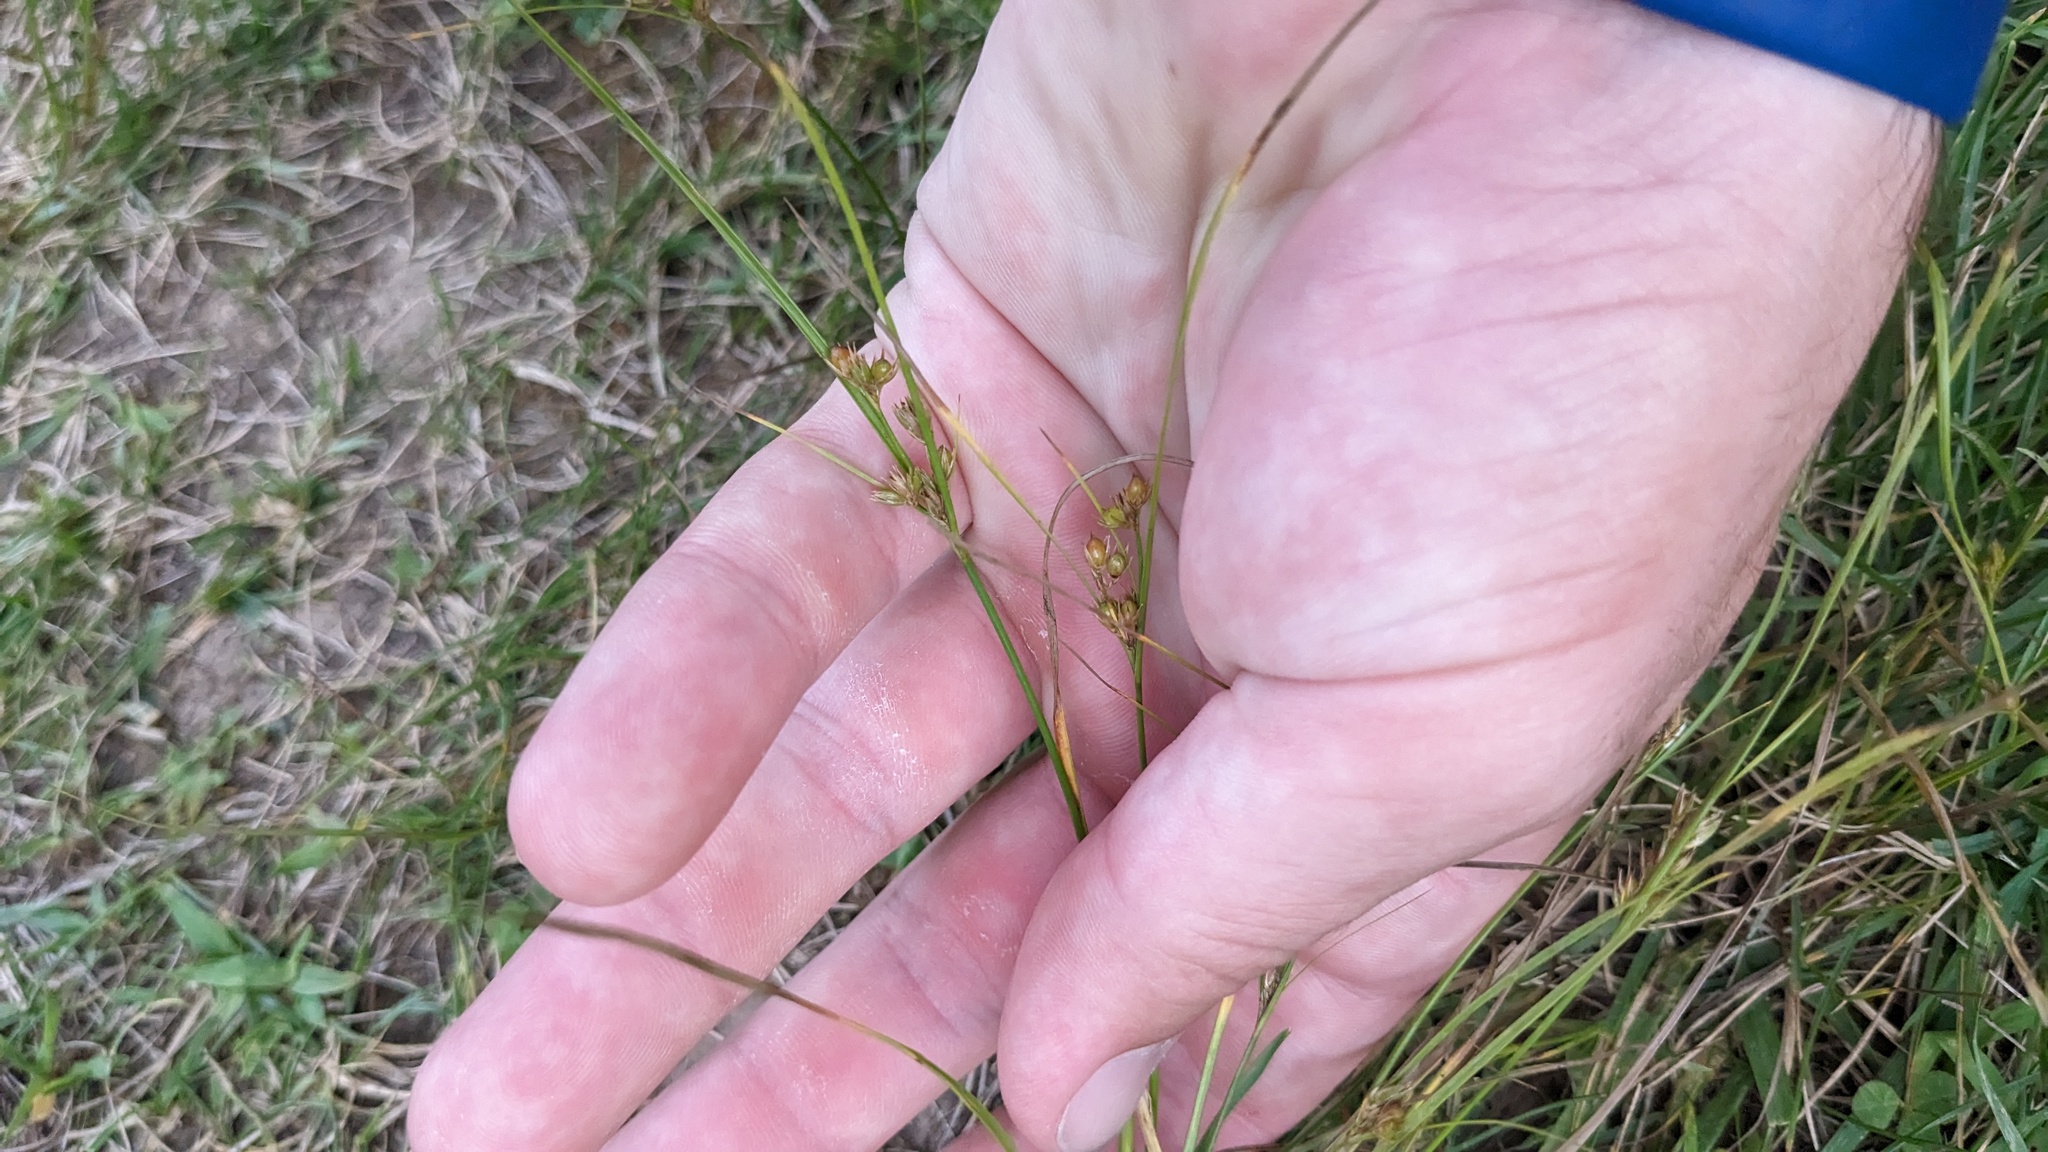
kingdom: Plantae
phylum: Tracheophyta
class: Liliopsida
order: Poales
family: Juncaceae
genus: Juncus
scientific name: Juncus tenuis
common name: Slender rush
